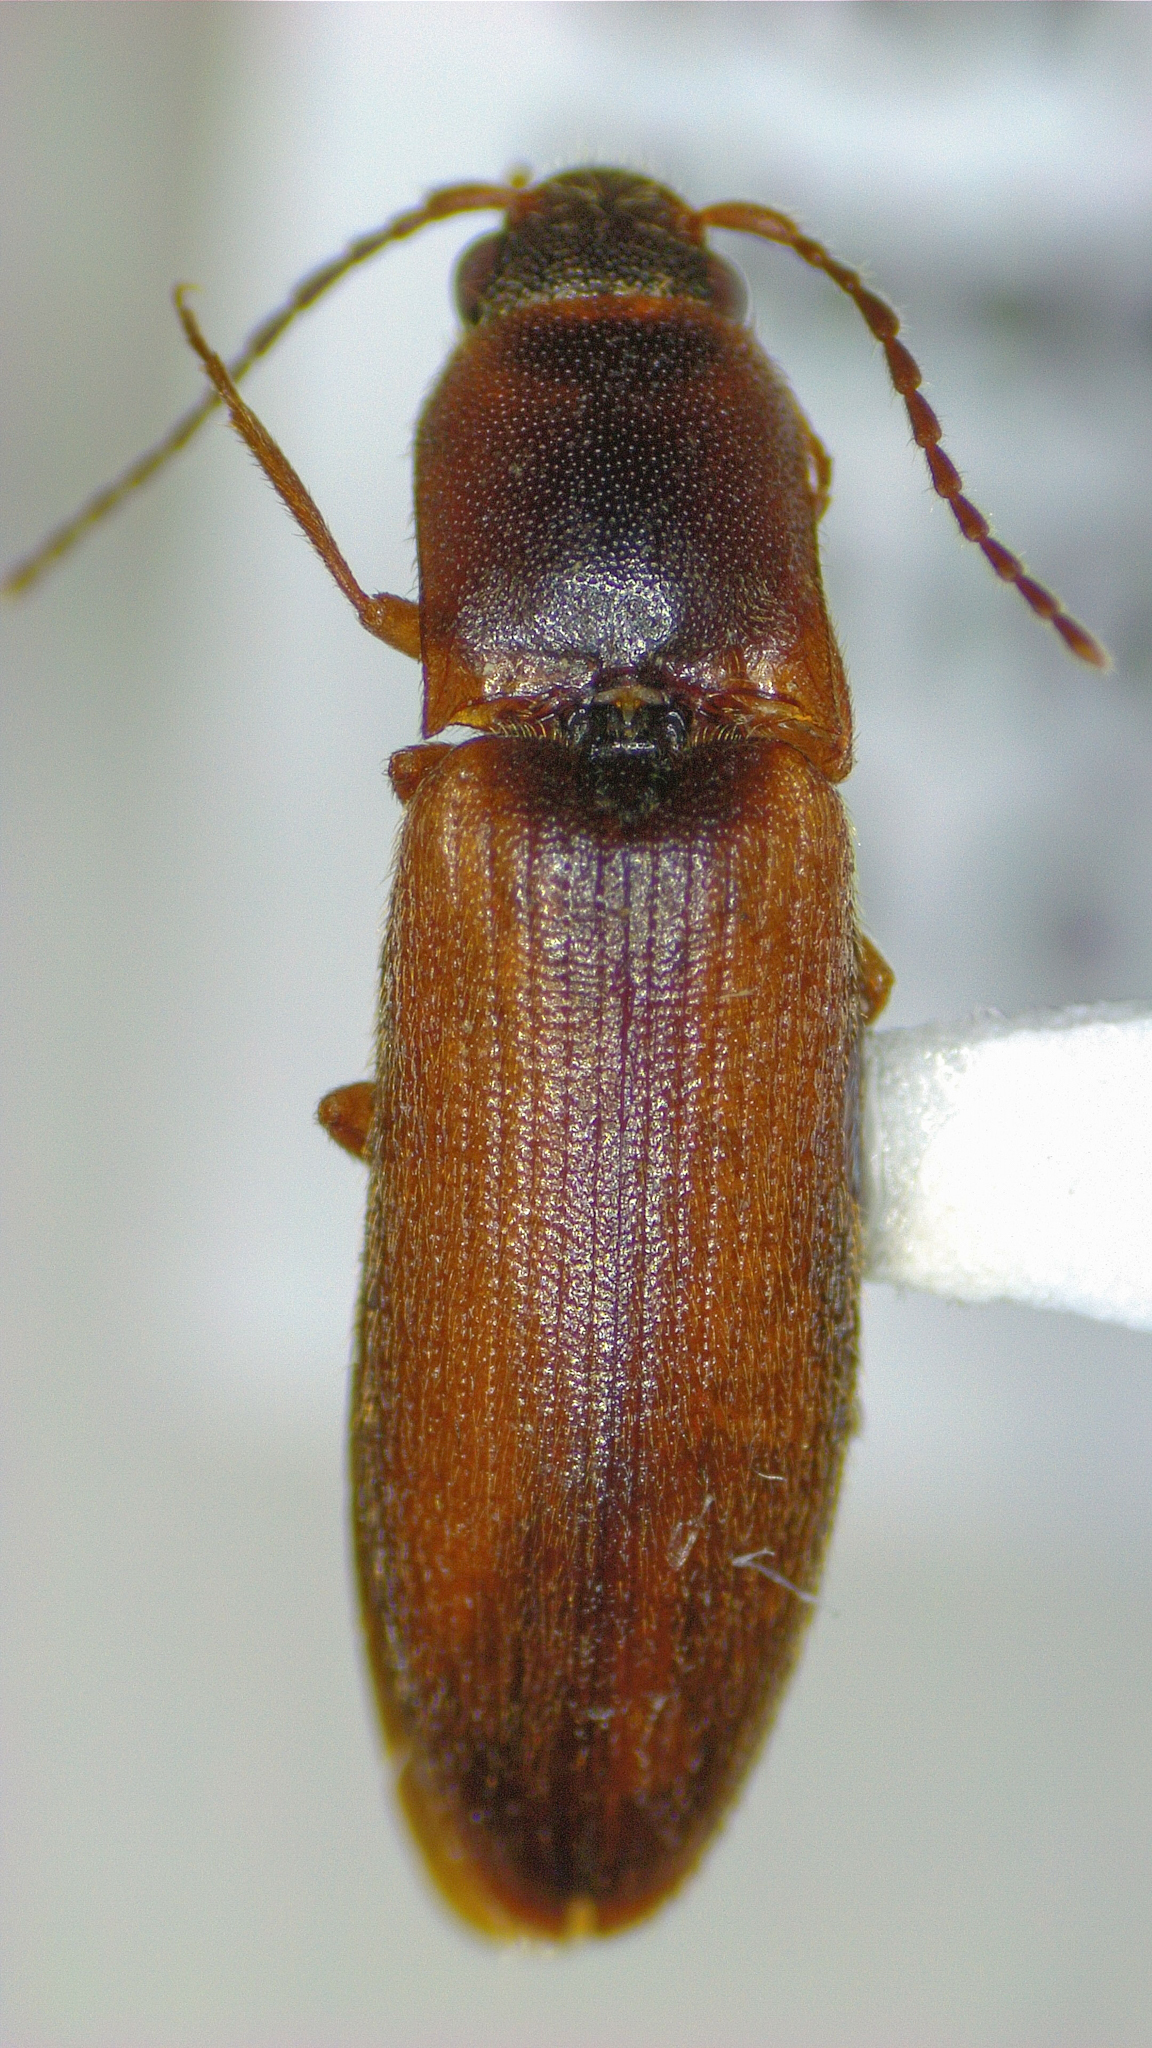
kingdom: Animalia
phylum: Arthropoda
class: Insecta
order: Coleoptera
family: Elateridae
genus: Dalopius
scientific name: Dalopius ignobilis
